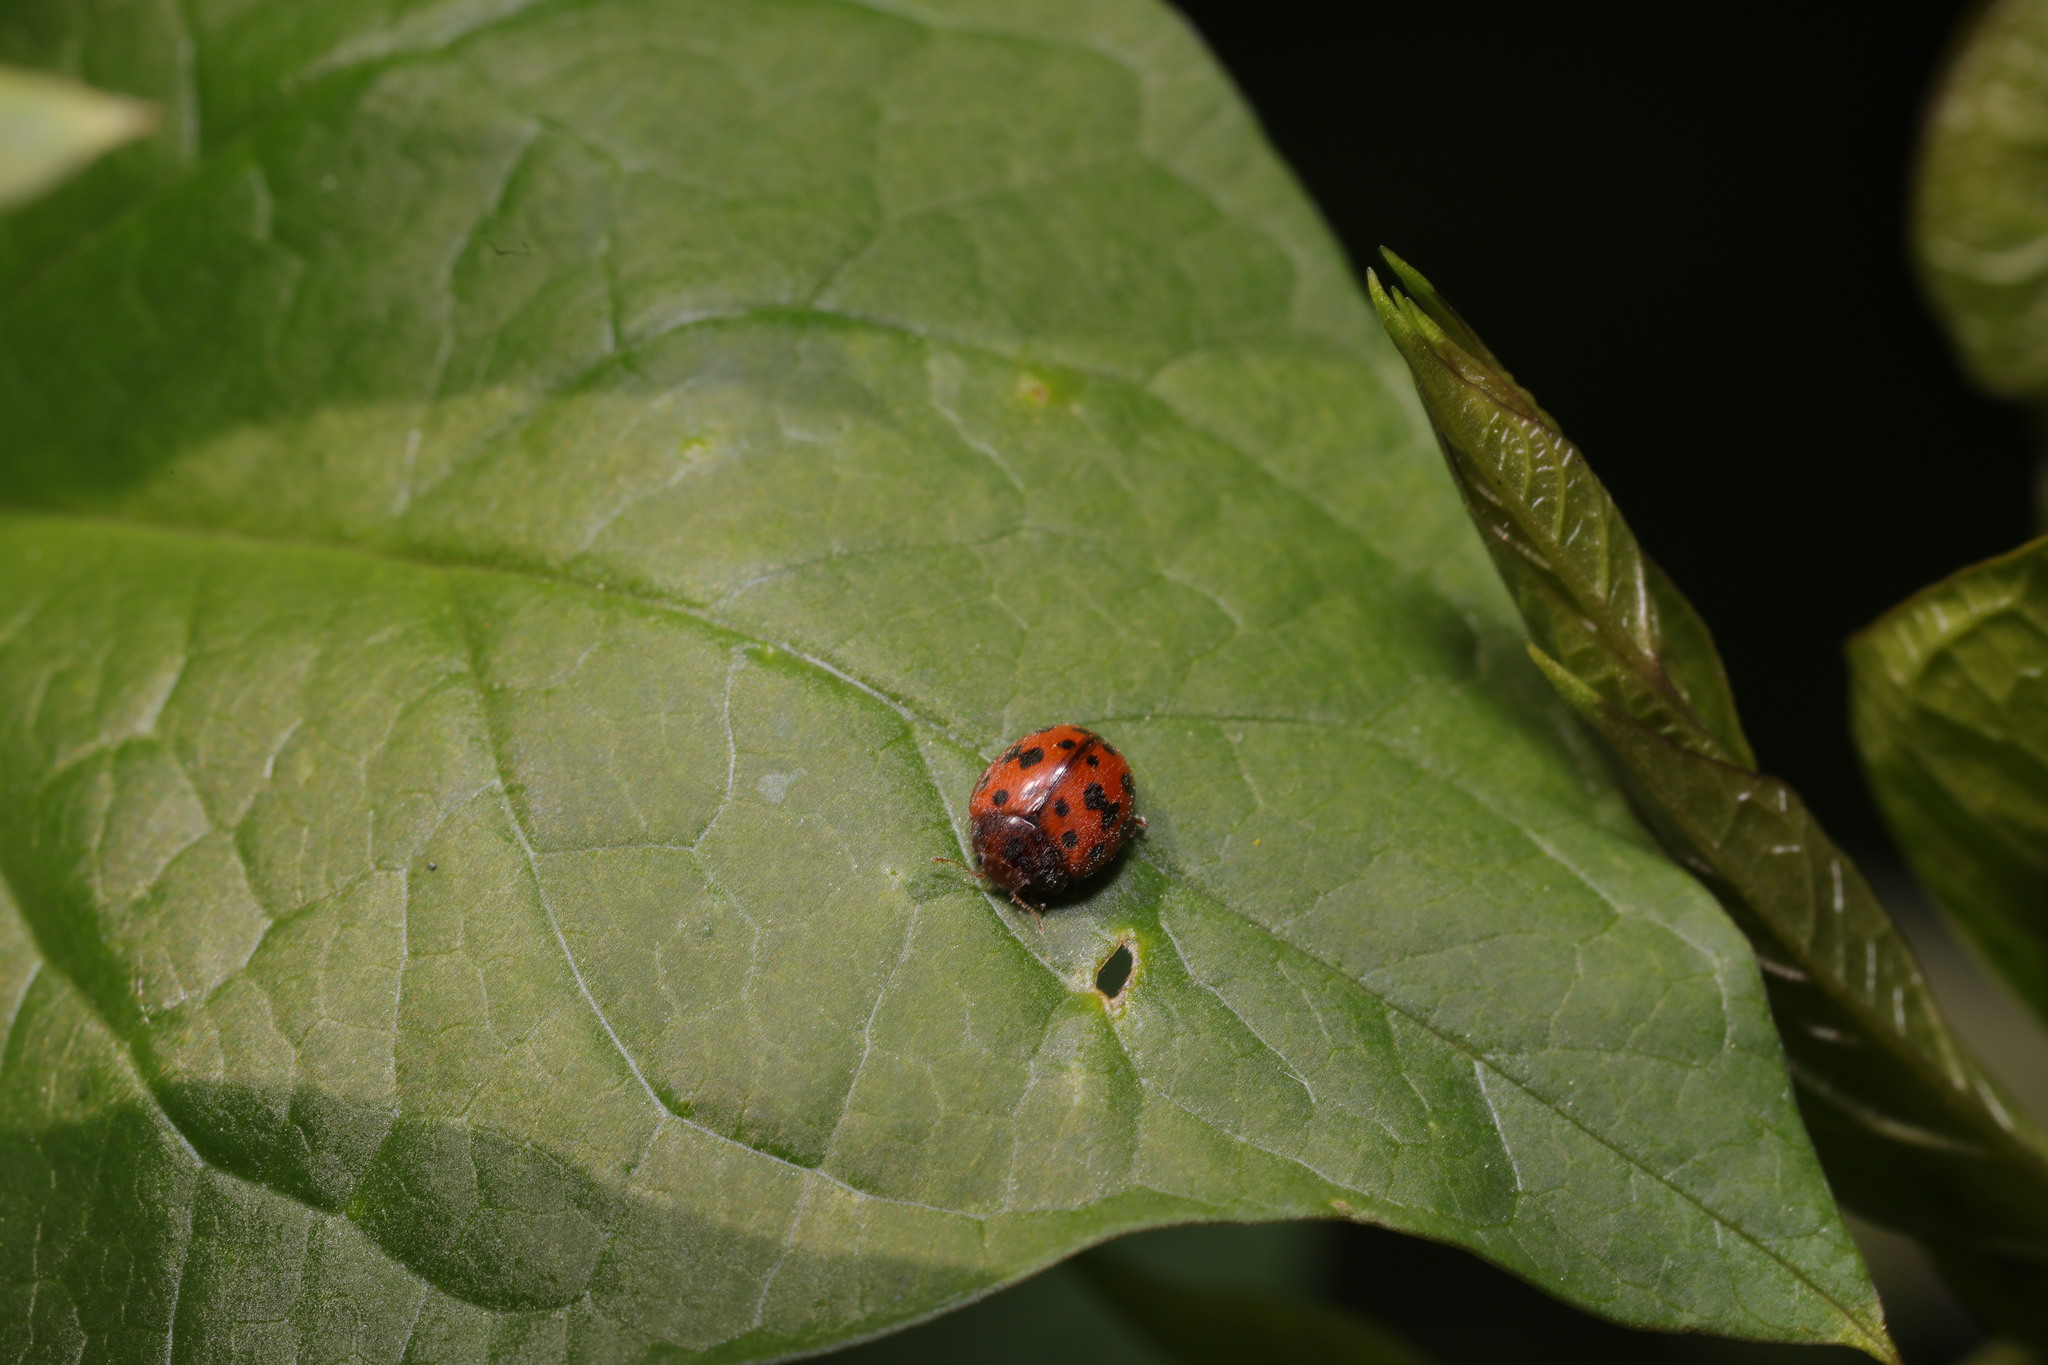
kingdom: Animalia
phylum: Arthropoda
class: Insecta
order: Coleoptera
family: Coccinellidae
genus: Subcoccinella
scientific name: Subcoccinella vigintiquatuorpunctata
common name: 24-spot ladybird
